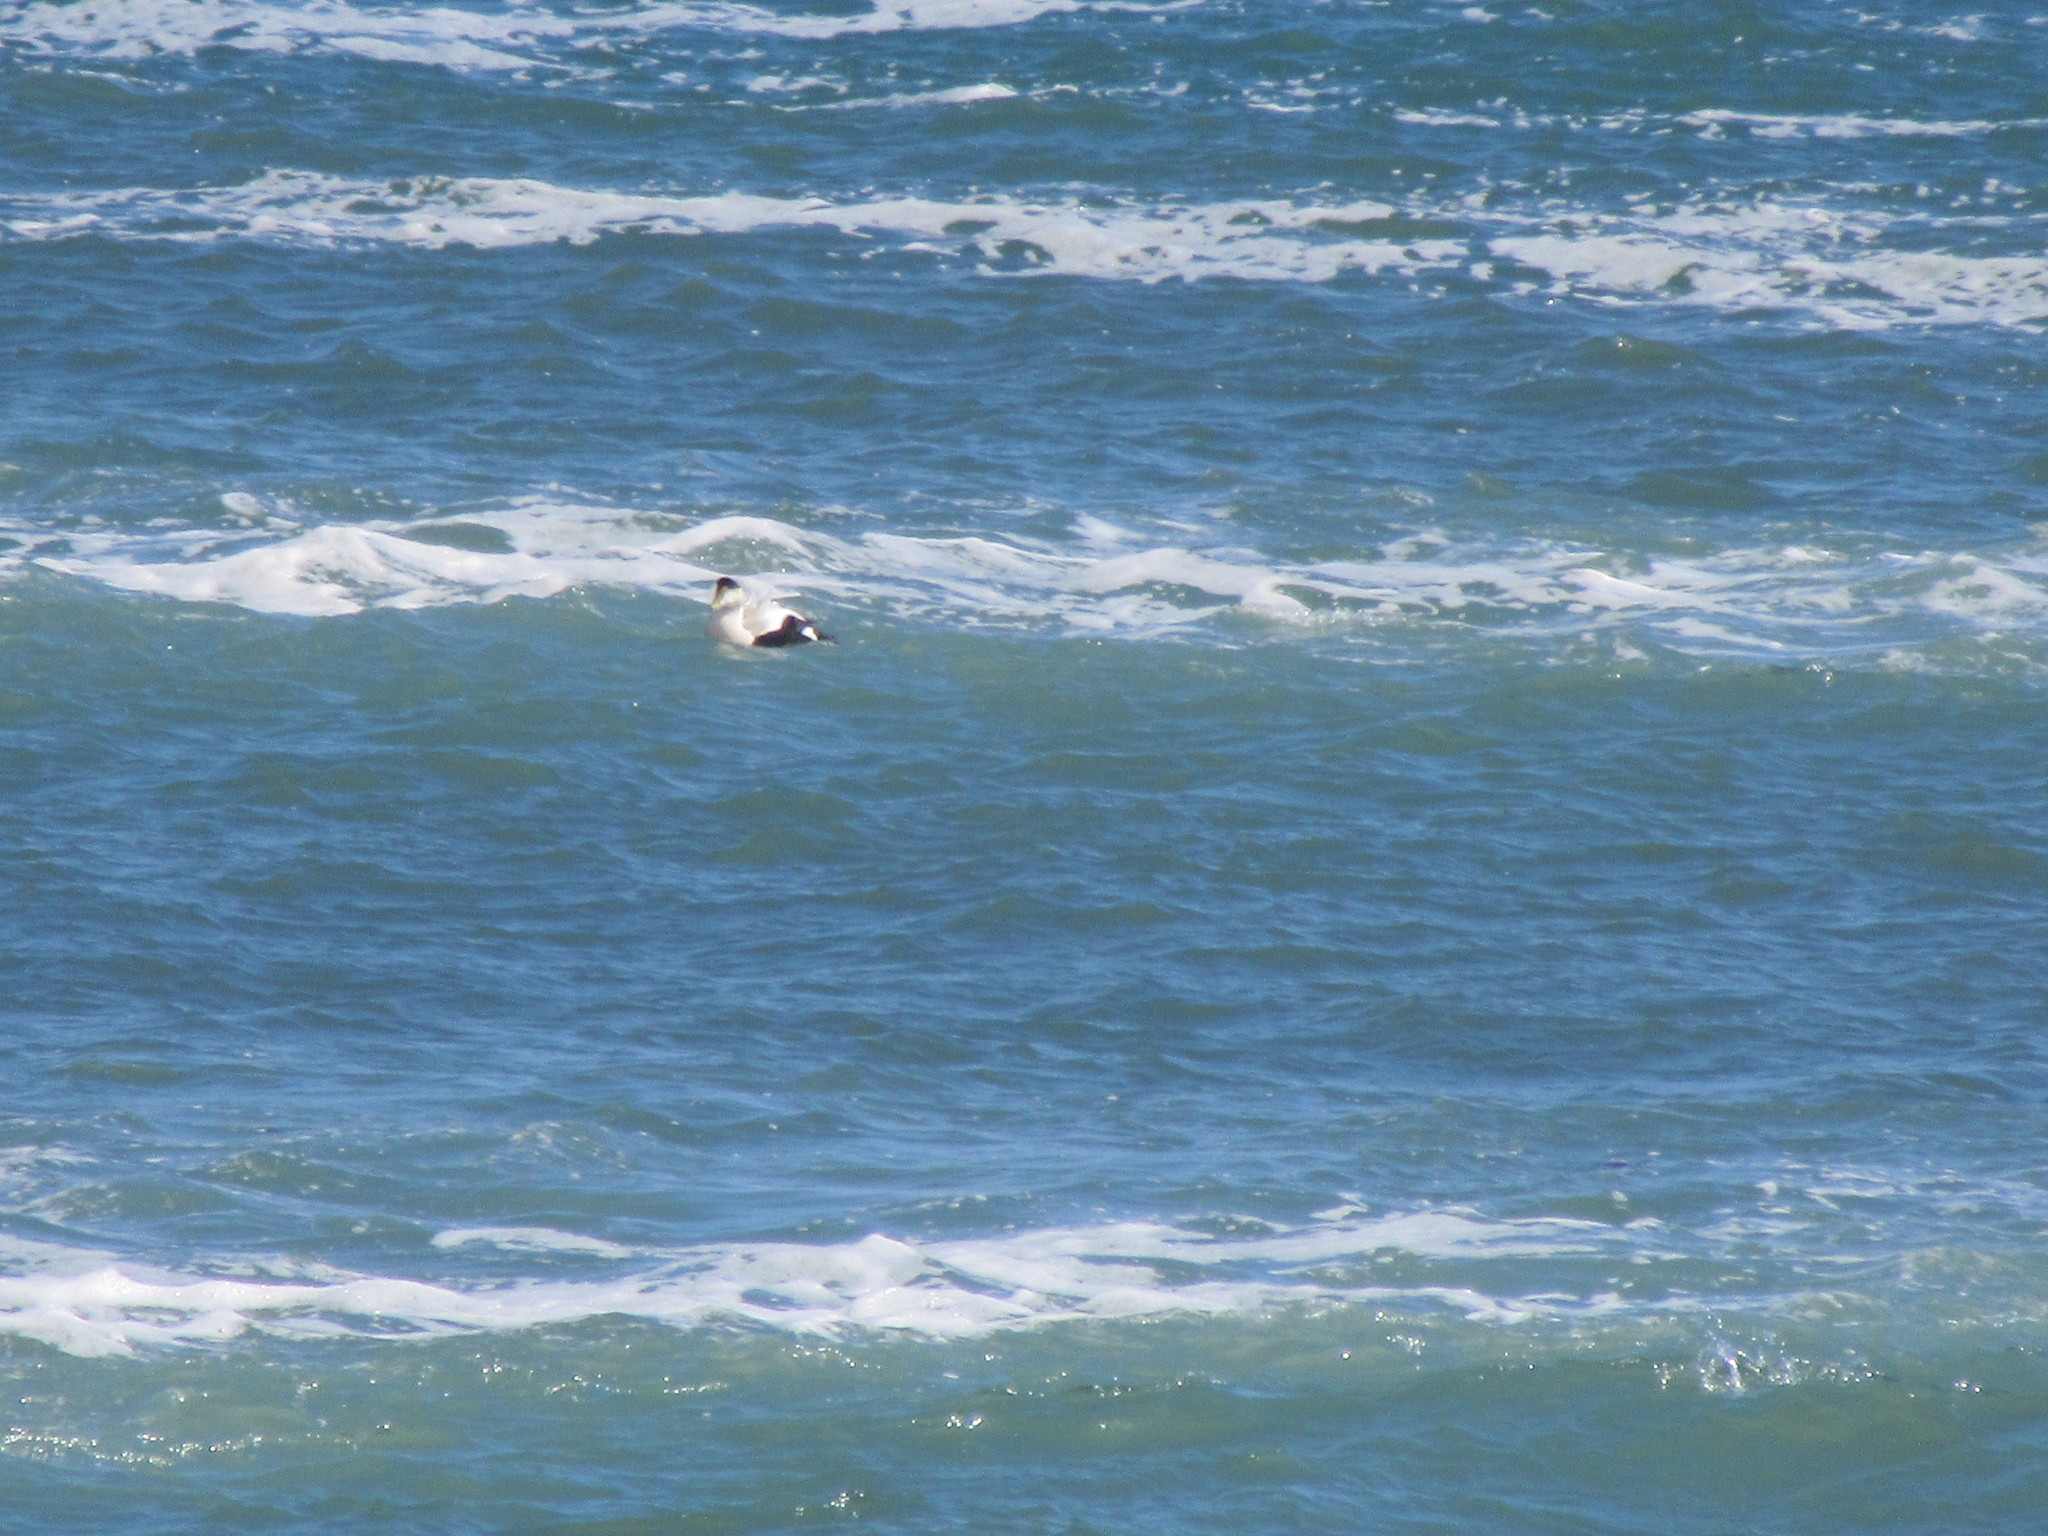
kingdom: Animalia
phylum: Chordata
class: Aves
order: Anseriformes
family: Anatidae
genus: Somateria
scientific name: Somateria mollissima
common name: Common eider
